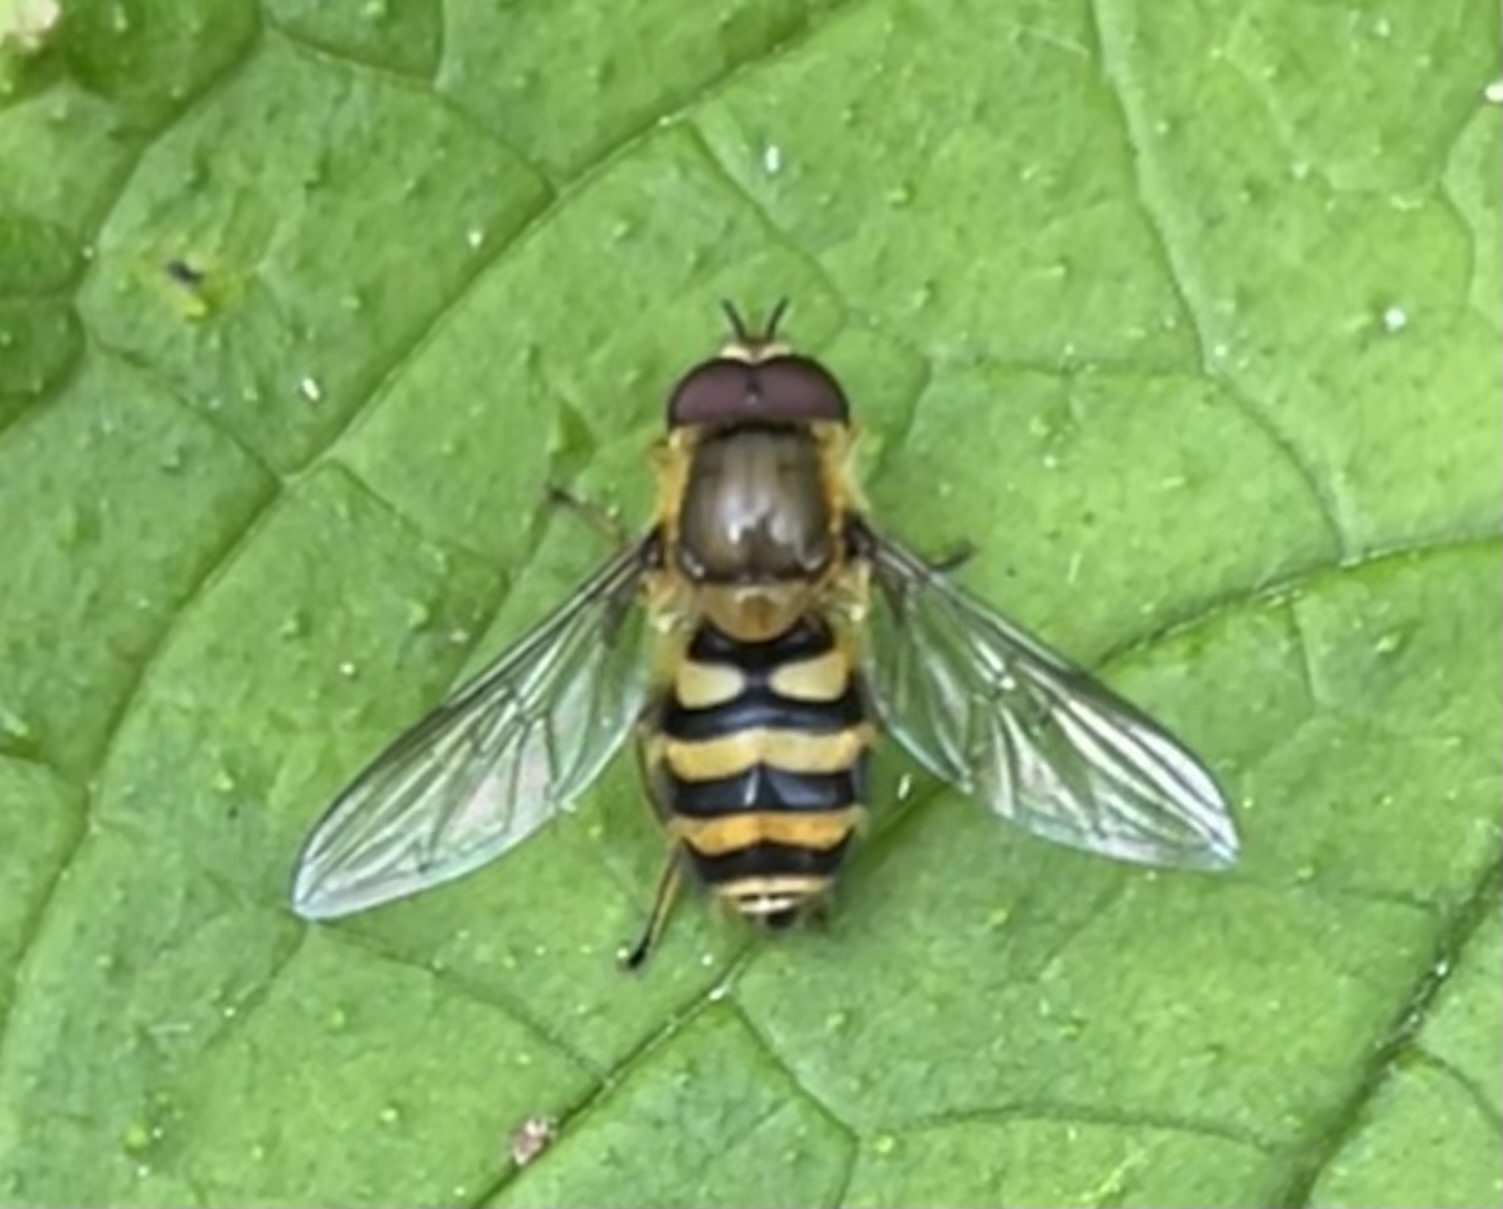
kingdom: Animalia
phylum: Arthropoda
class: Insecta
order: Diptera
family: Syrphidae
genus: Syrphus
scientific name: Syrphus
